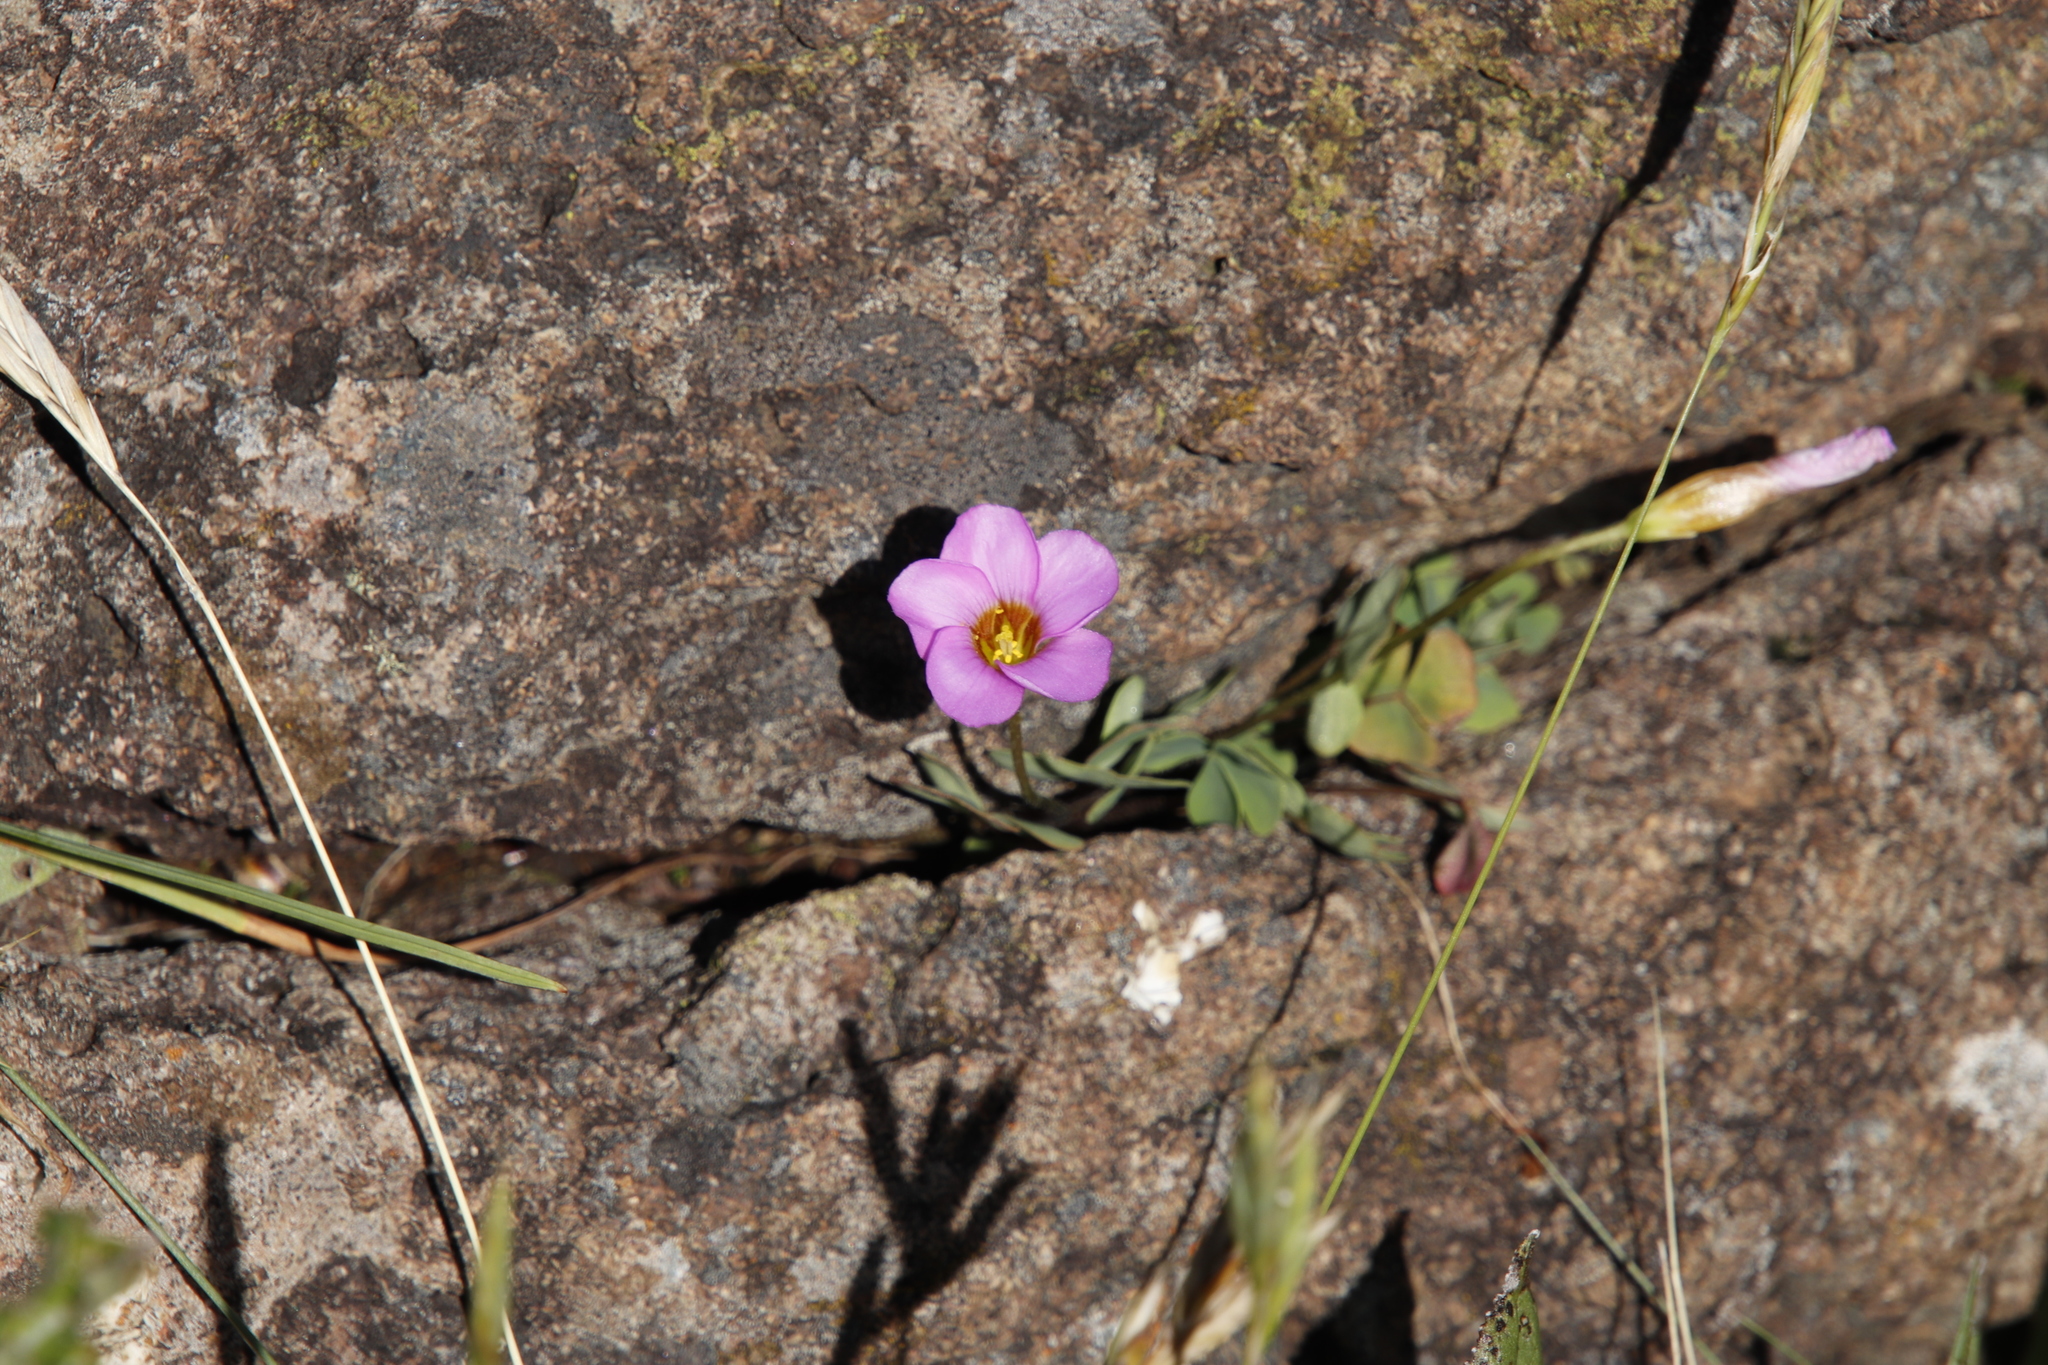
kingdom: Plantae
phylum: Tracheophyta
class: Magnoliopsida
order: Oxalidales
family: Oxalidaceae
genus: Oxalis
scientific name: Oxalis obliquifolia
